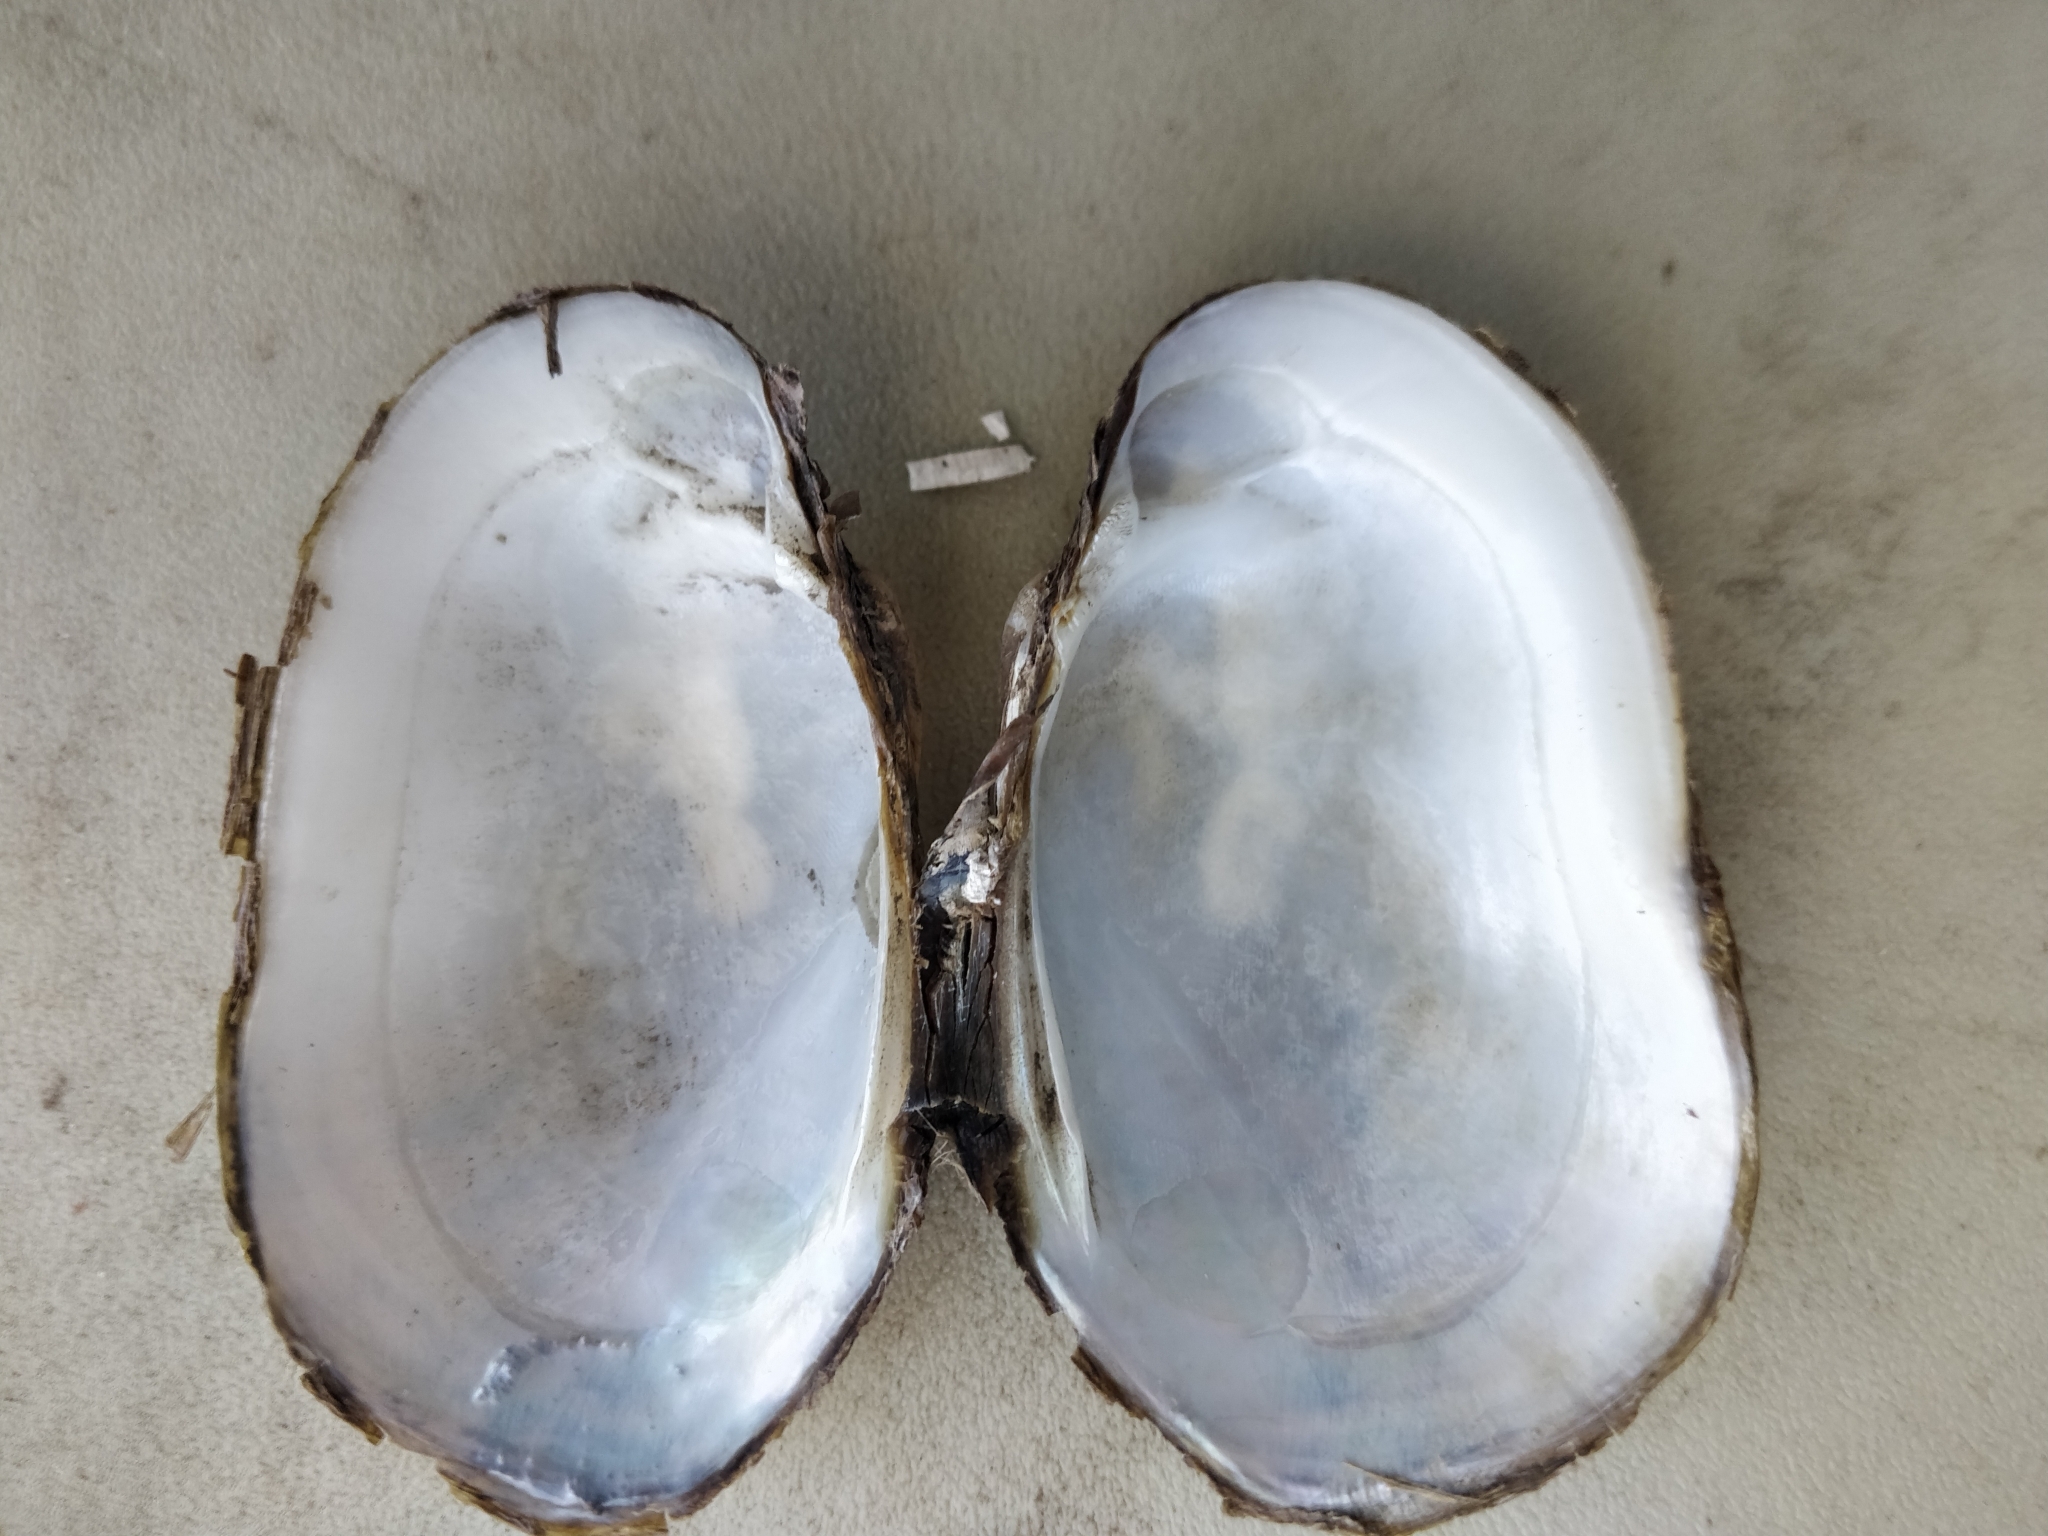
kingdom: Animalia
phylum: Mollusca
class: Bivalvia
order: Unionida
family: Unionidae
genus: Lampsilis
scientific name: Lampsilis siliquoidea
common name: Fatmucket
